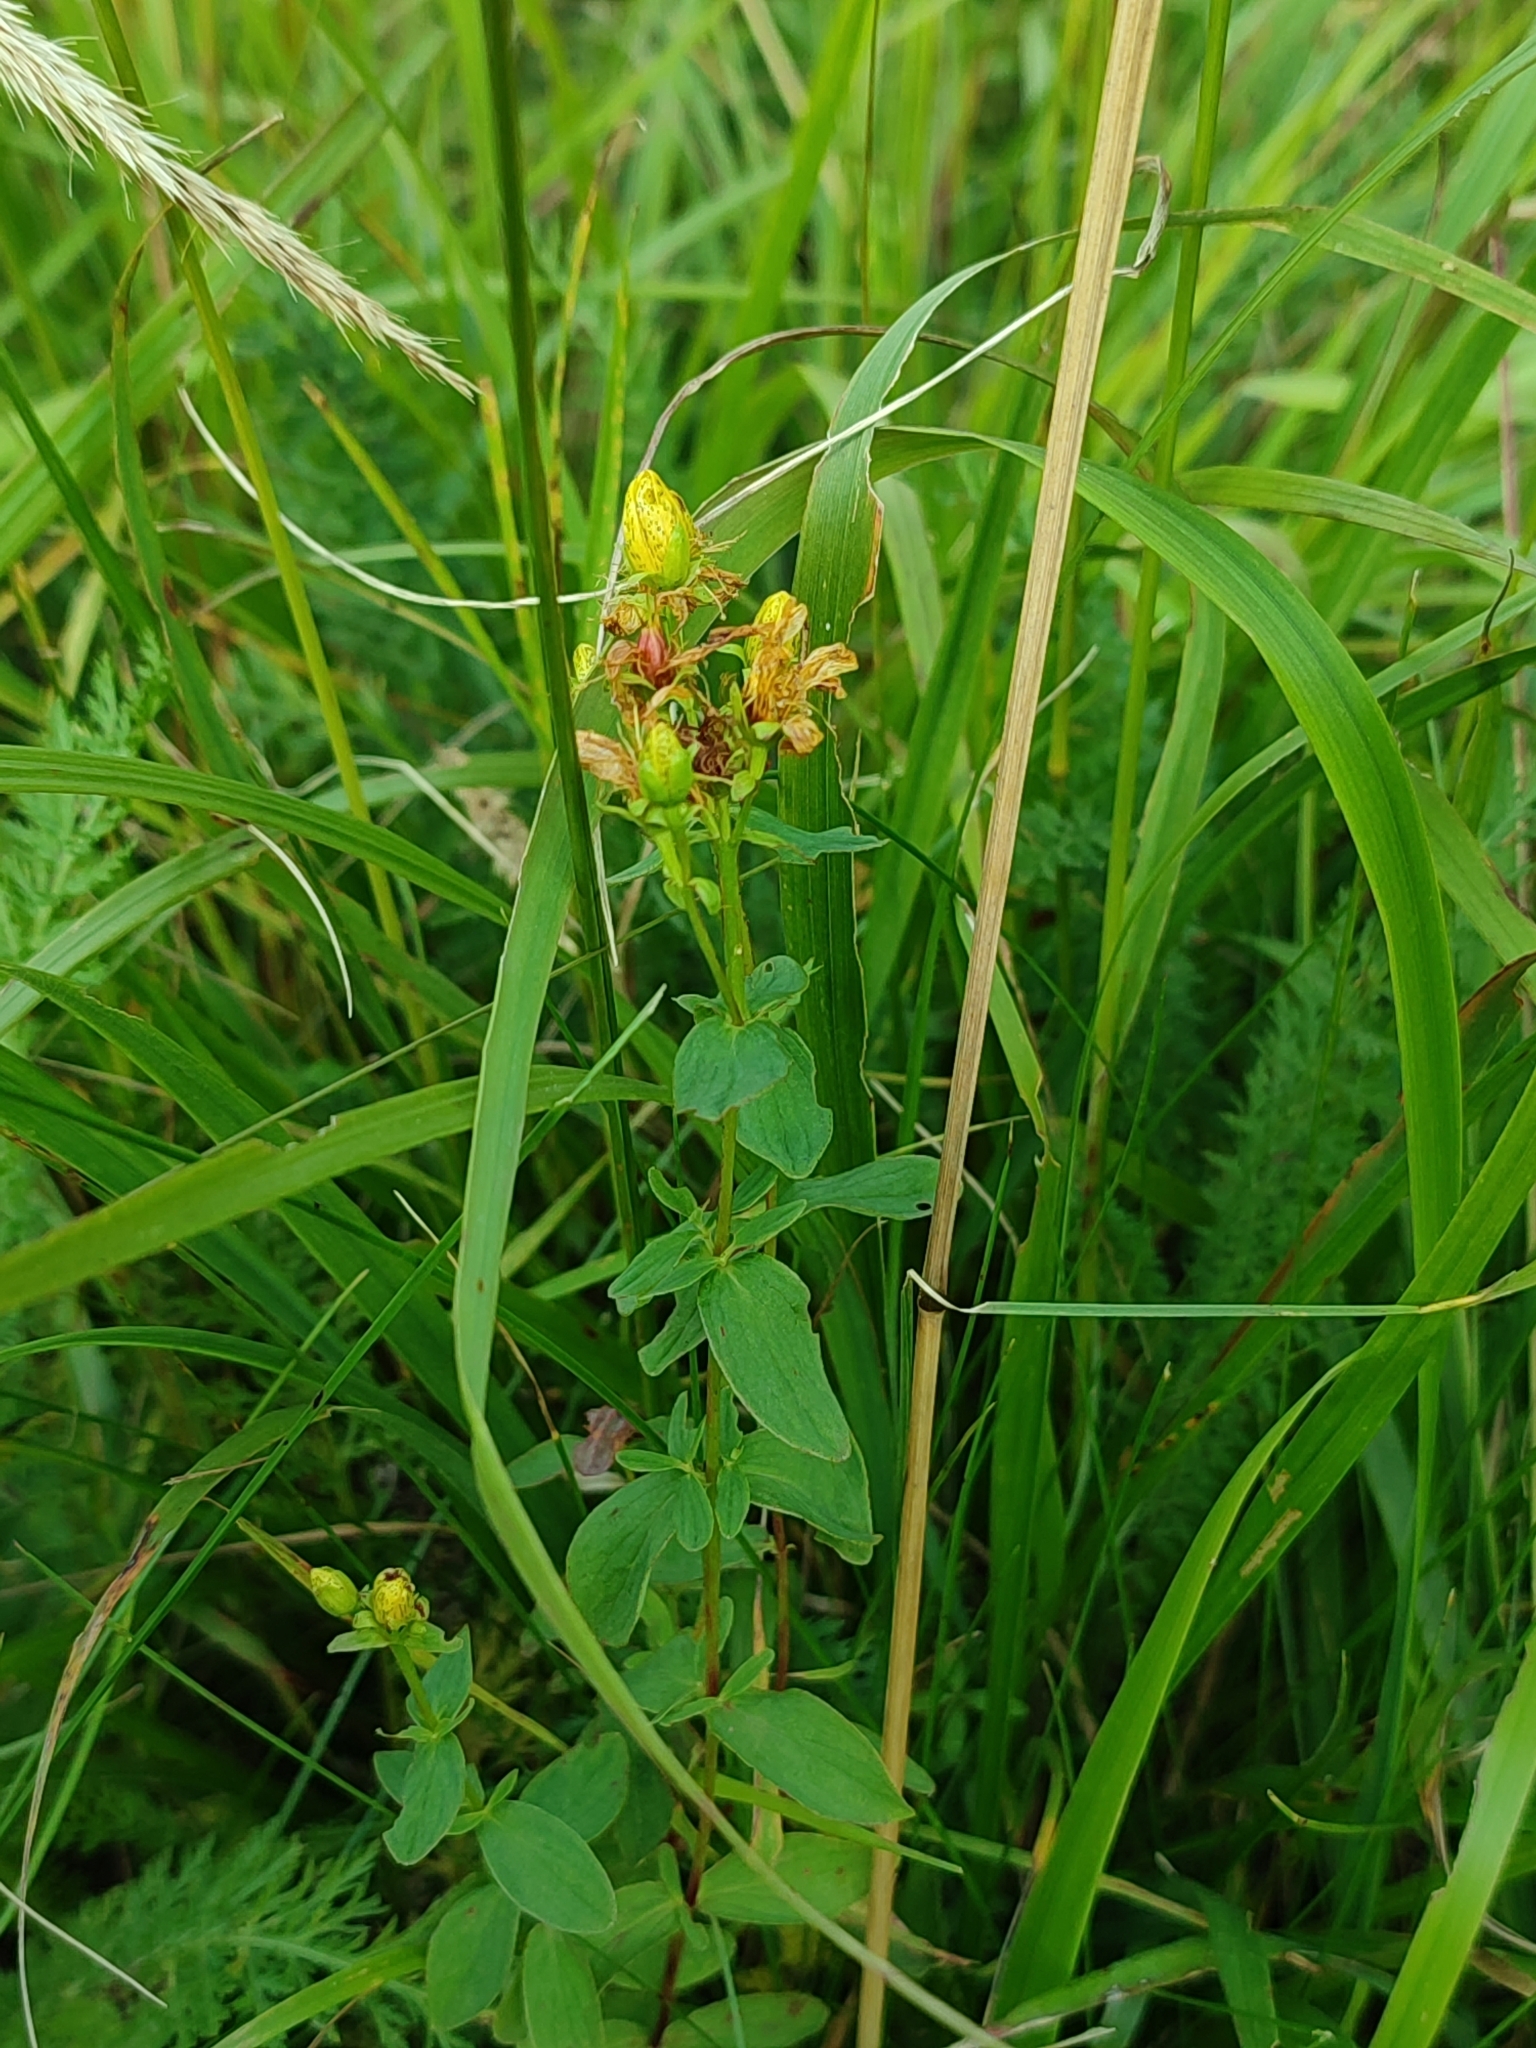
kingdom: Plantae
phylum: Tracheophyta
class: Magnoliopsida
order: Malpighiales
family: Hypericaceae
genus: Hypericum
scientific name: Hypericum maculatum
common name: Imperforate st. john's-wort
